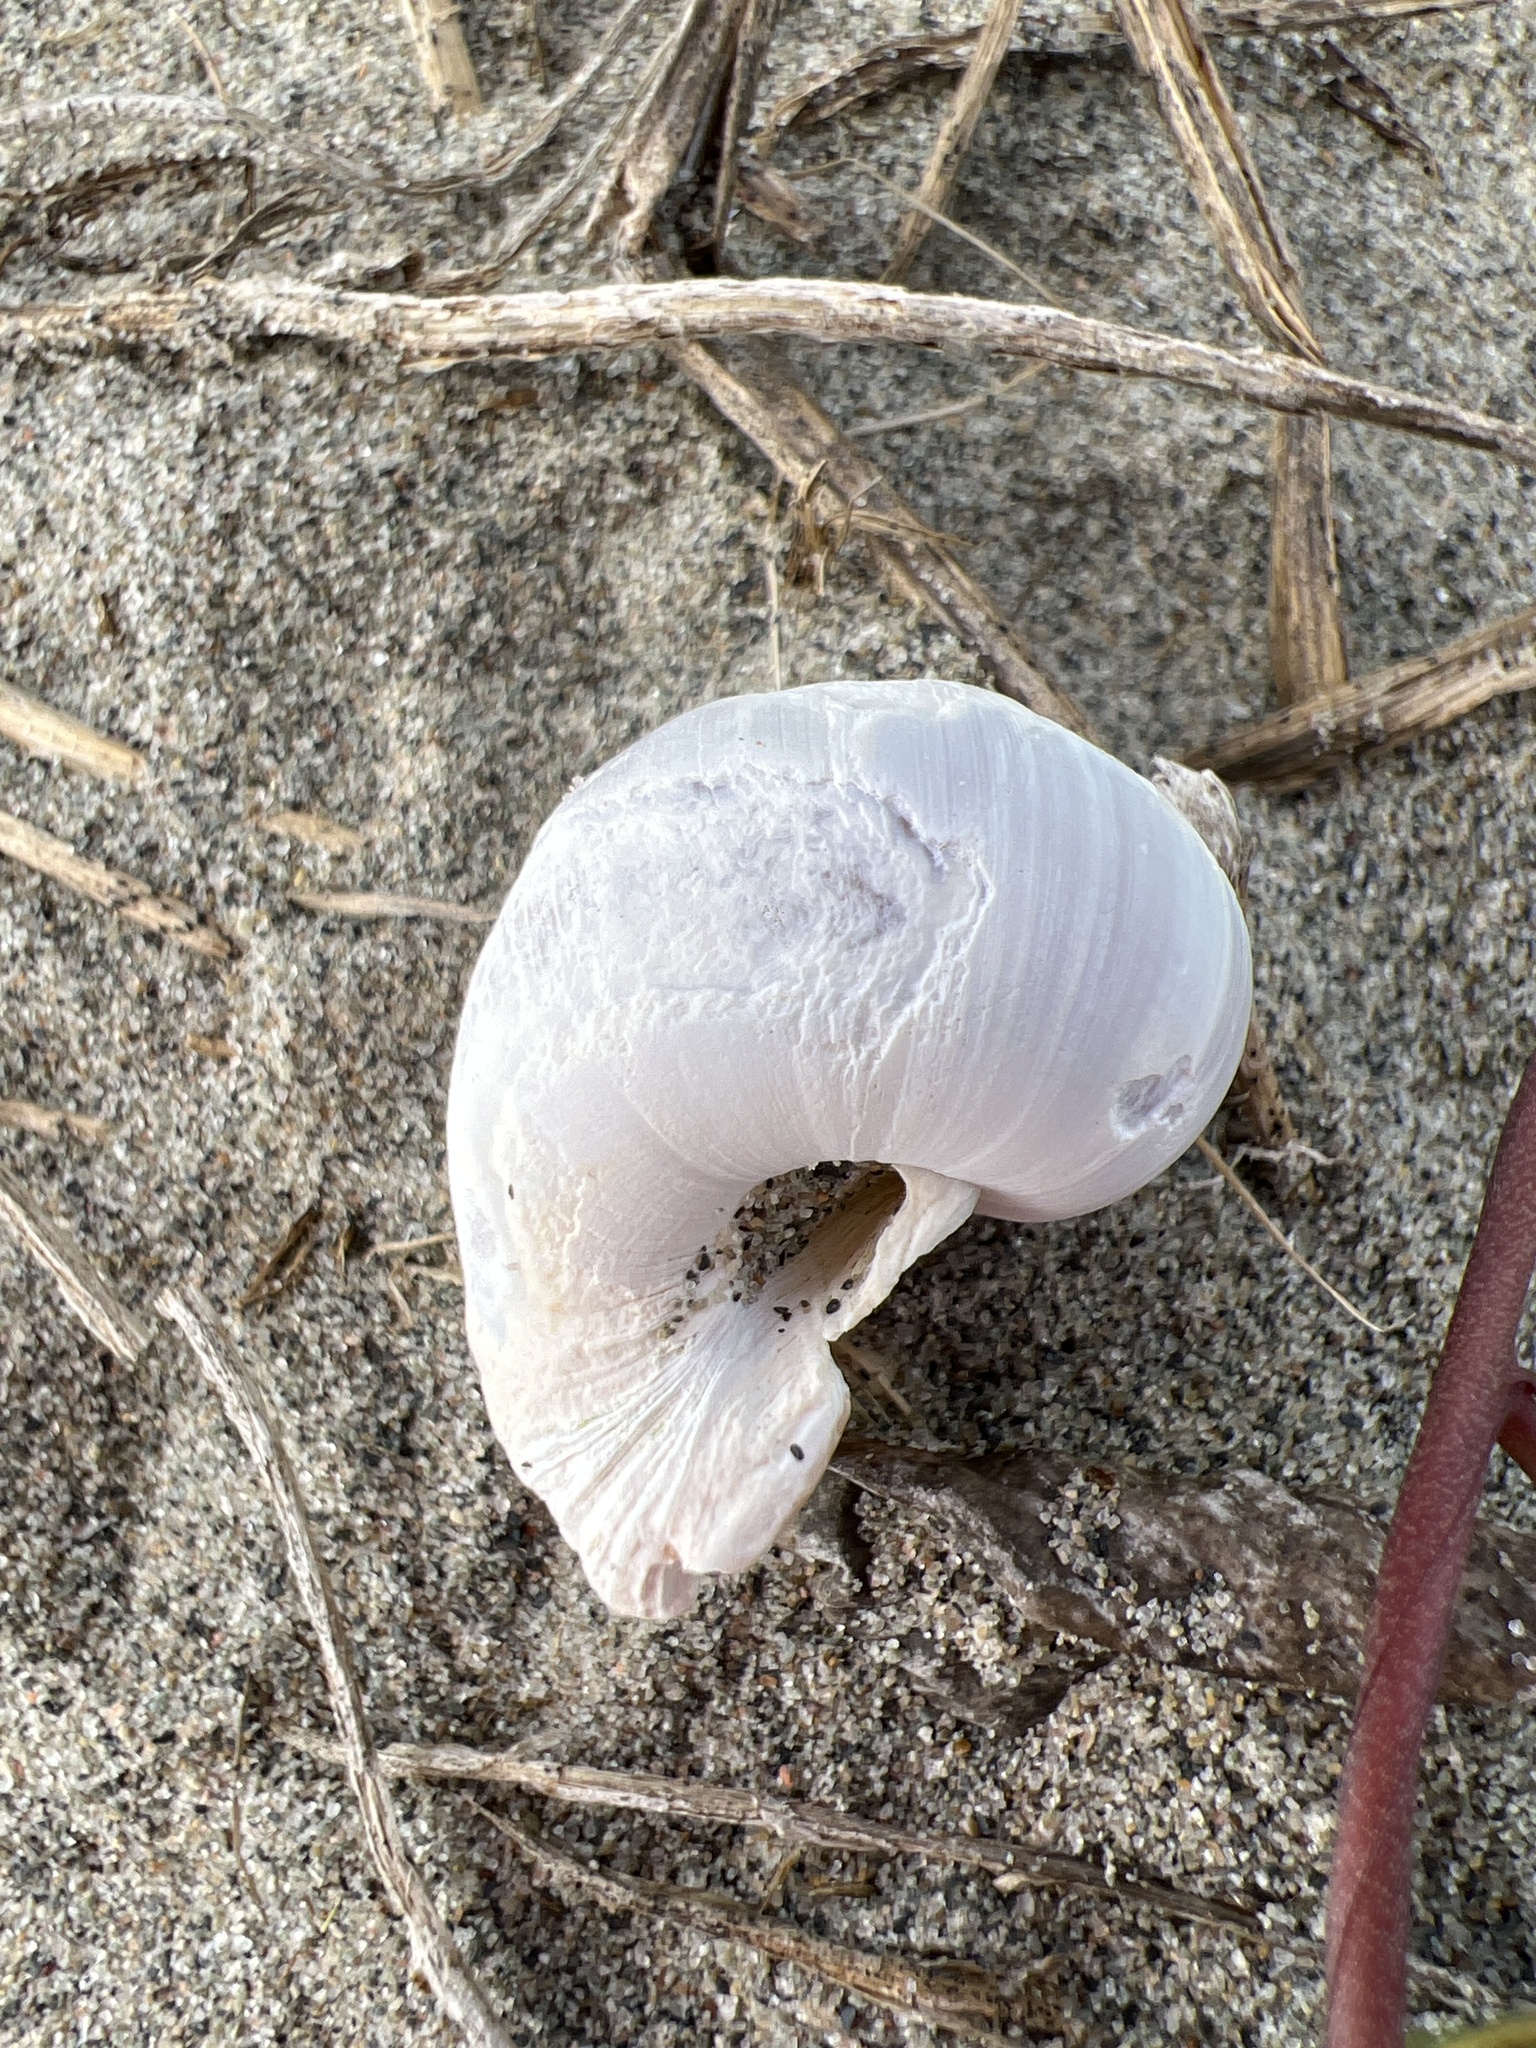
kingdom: Animalia
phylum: Mollusca
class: Gastropoda
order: Littorinimorpha
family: Naticidae
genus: Euspira
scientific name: Euspira heros
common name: Common northern moonsnail
